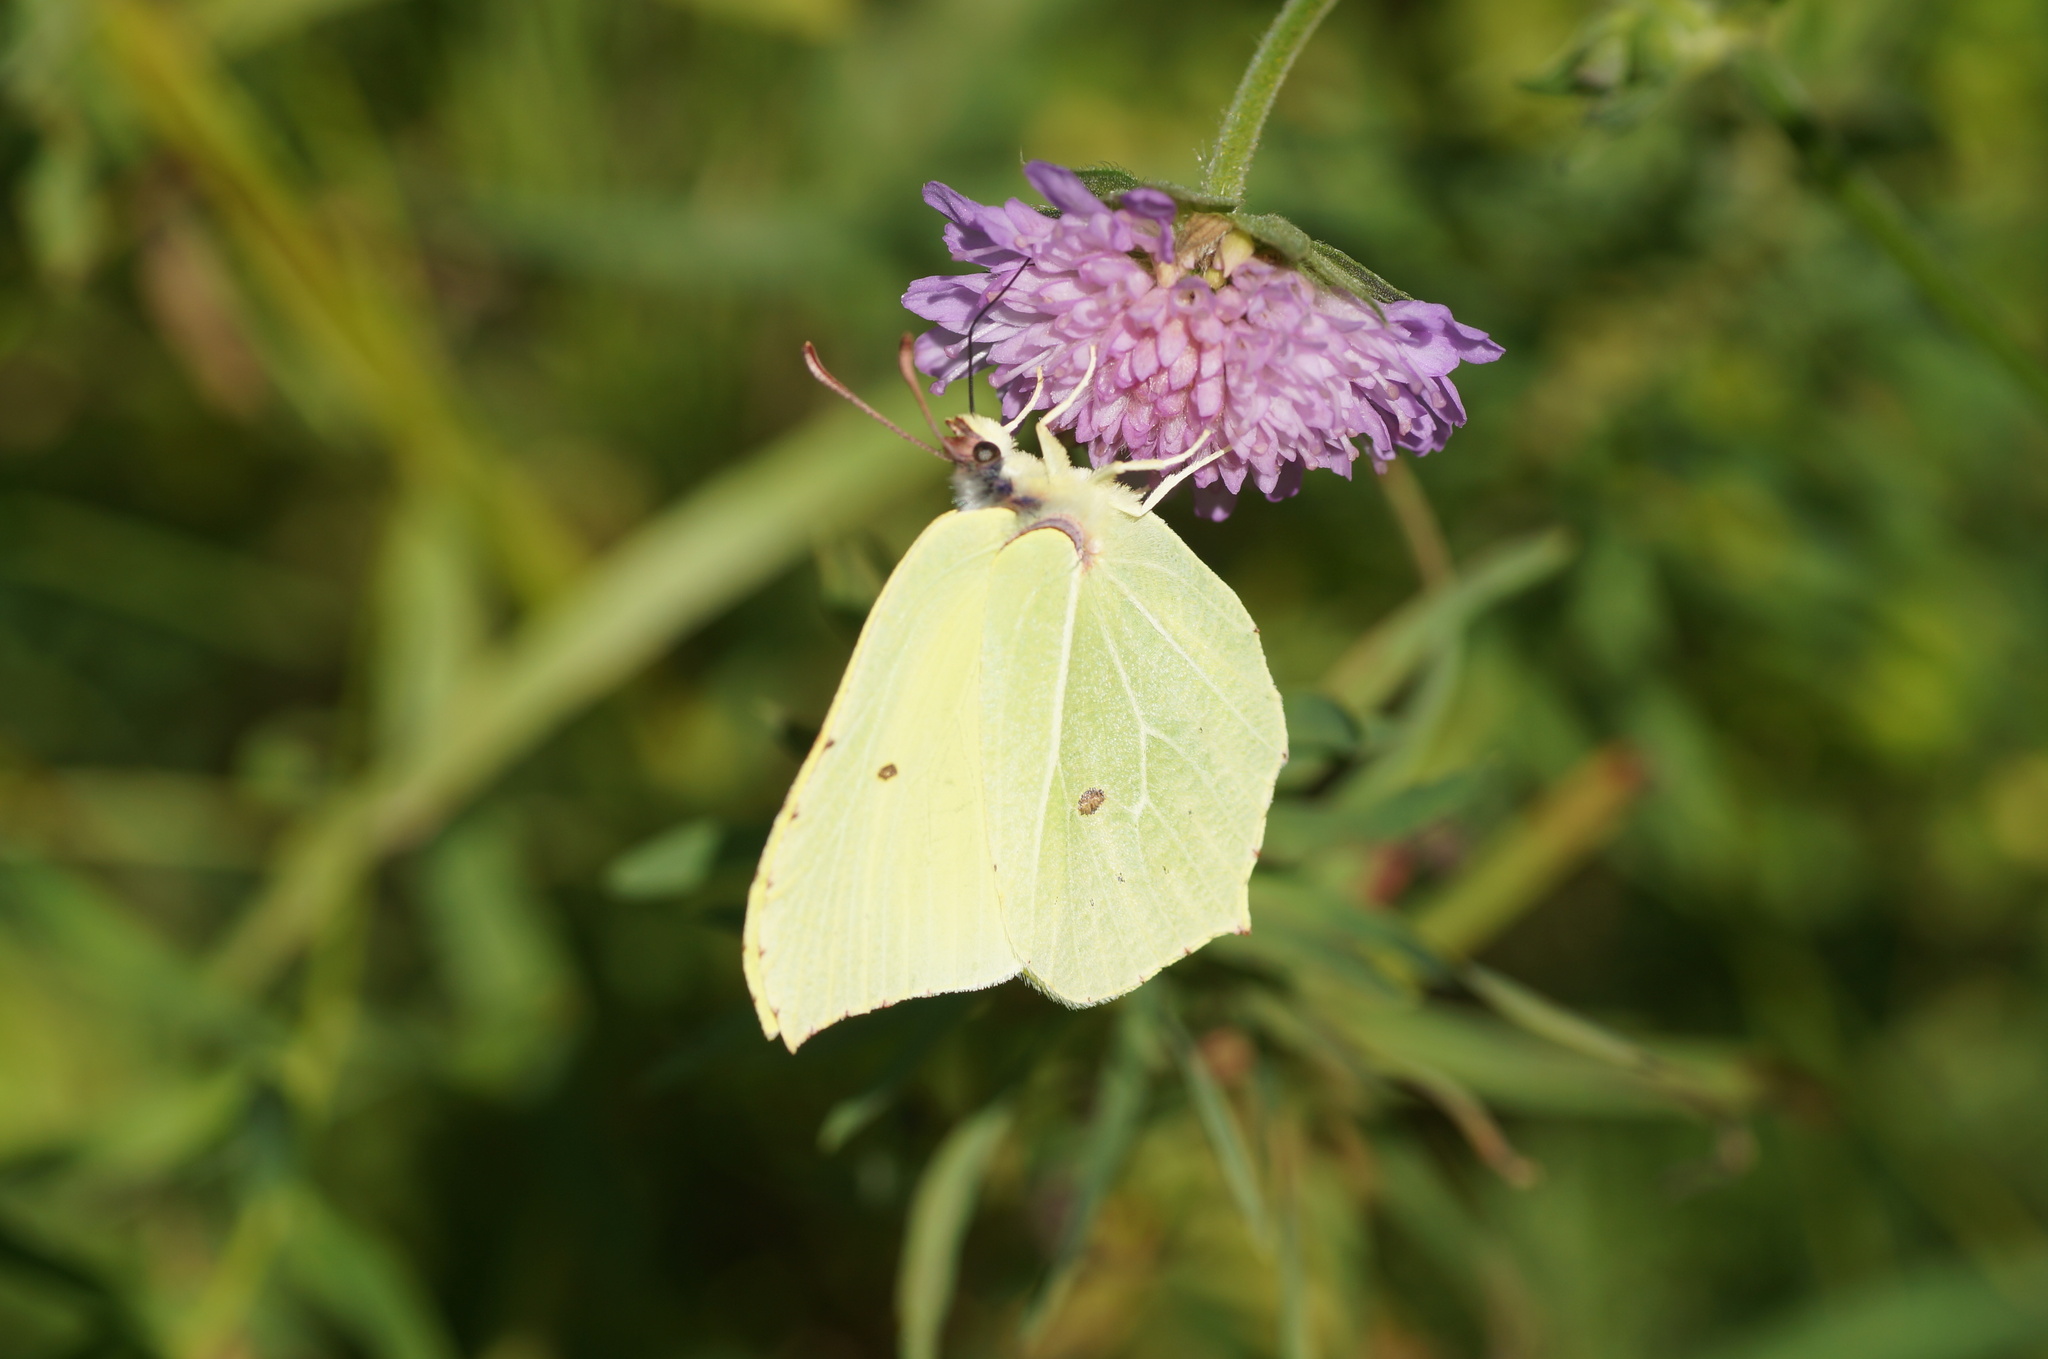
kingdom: Animalia
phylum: Arthropoda
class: Insecta
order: Lepidoptera
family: Pieridae
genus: Gonepteryx
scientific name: Gonepteryx rhamni
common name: Brimstone
